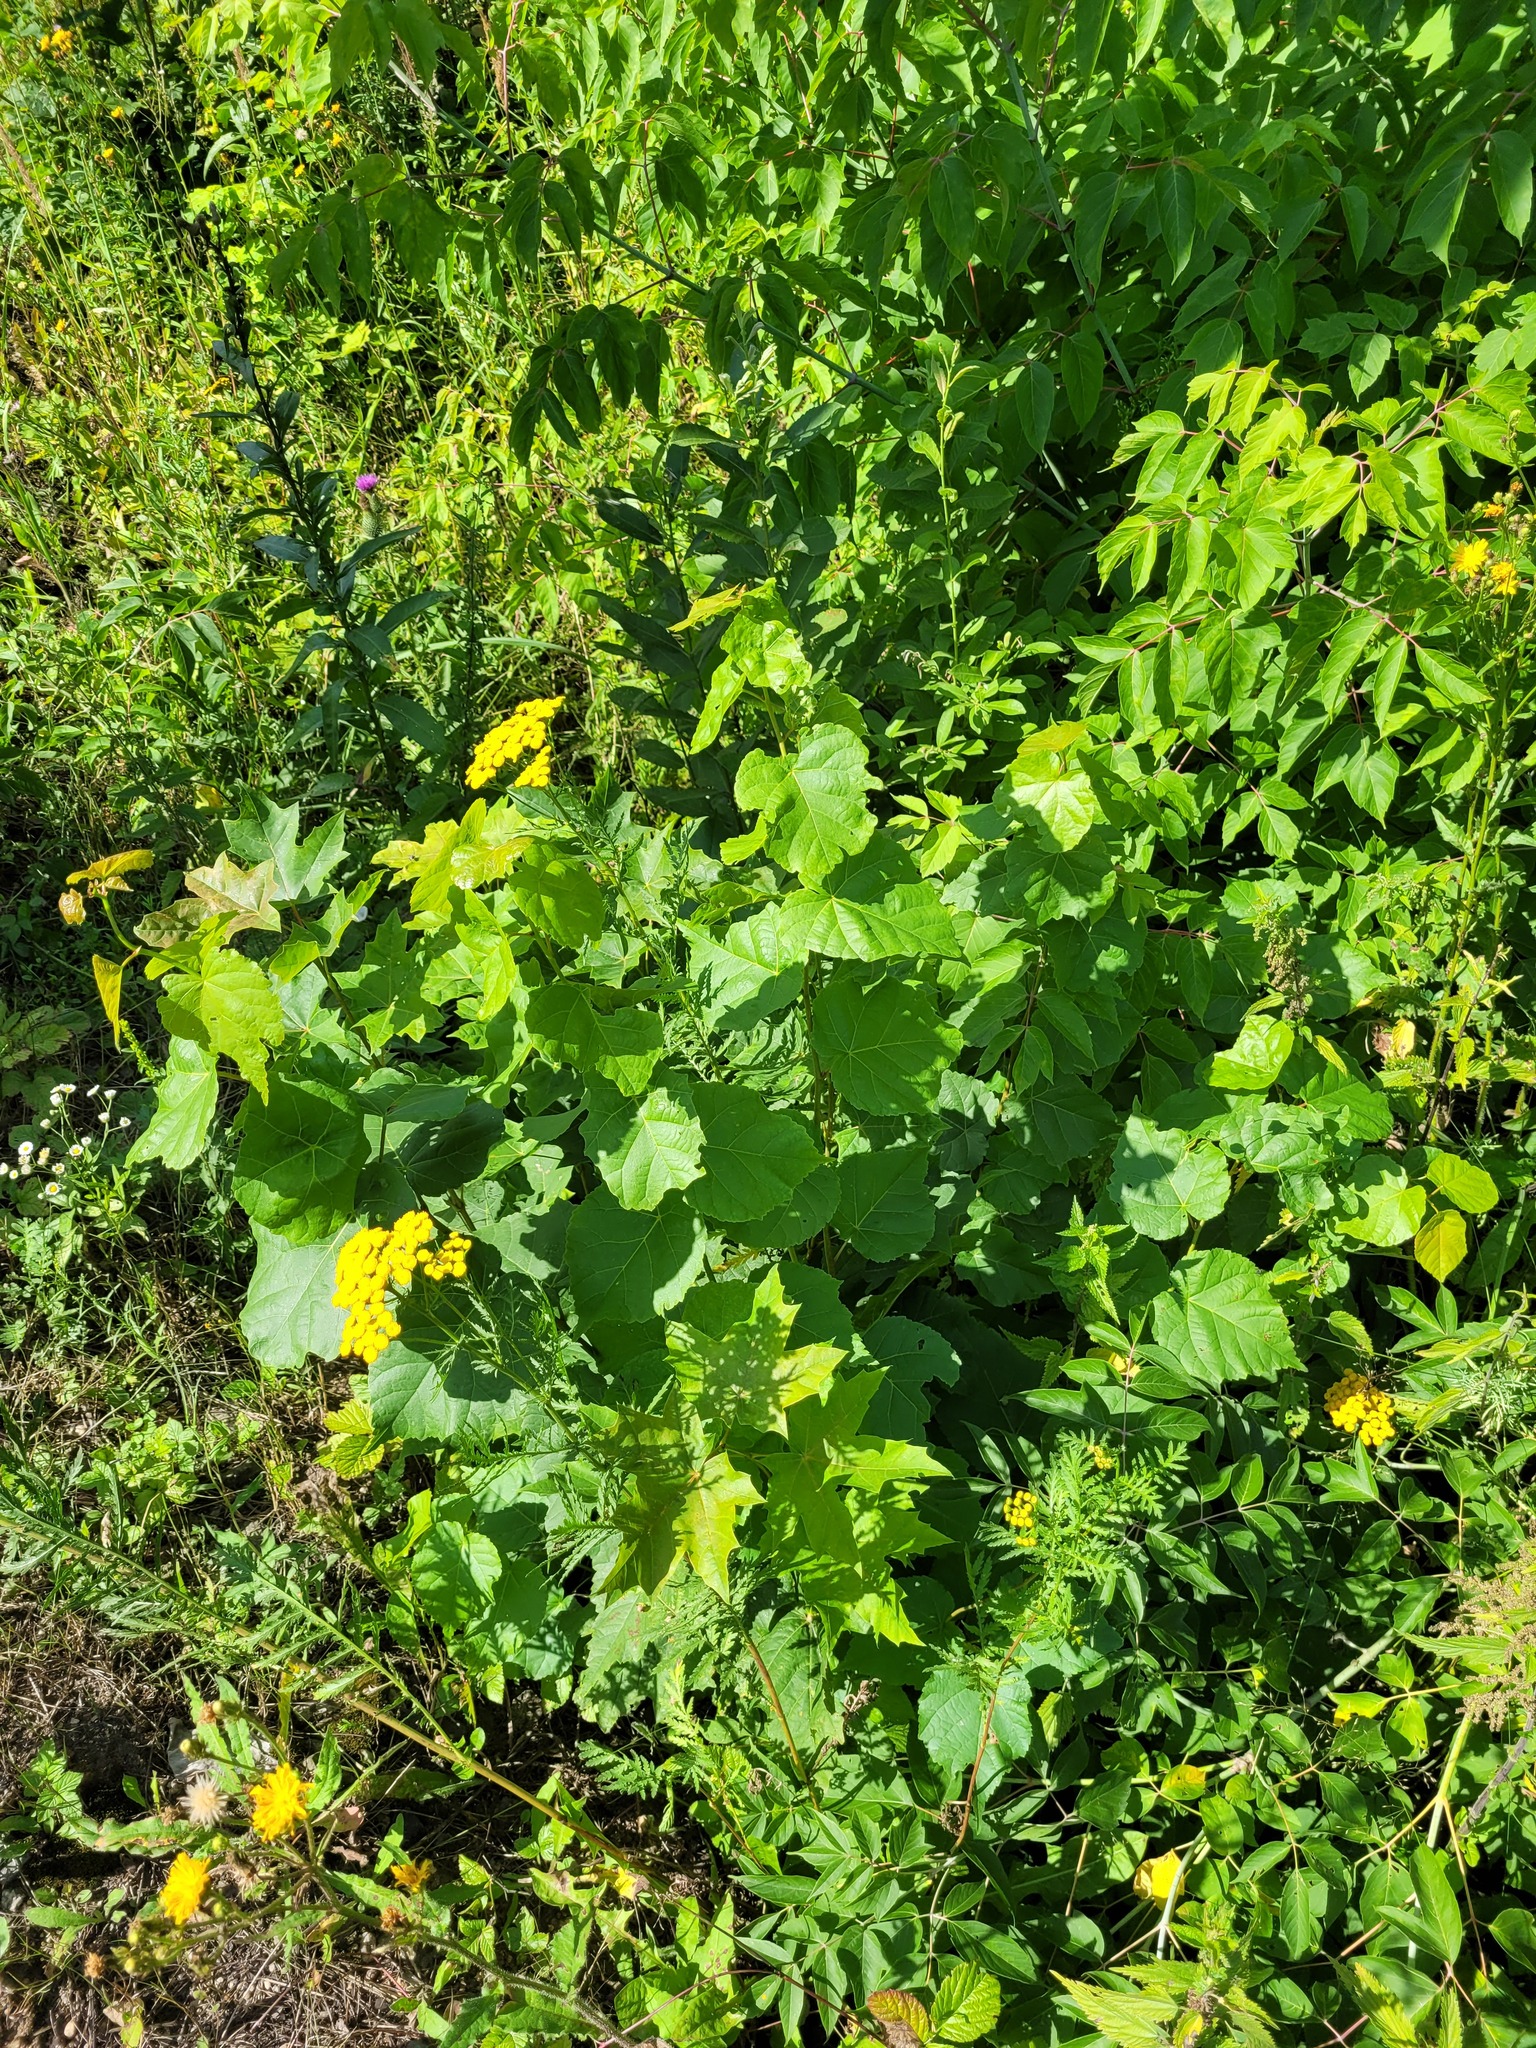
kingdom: Plantae
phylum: Tracheophyta
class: Magnoliopsida
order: Malvales
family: Malvaceae
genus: Tilia
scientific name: Tilia cordata
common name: Small-leaved lime
